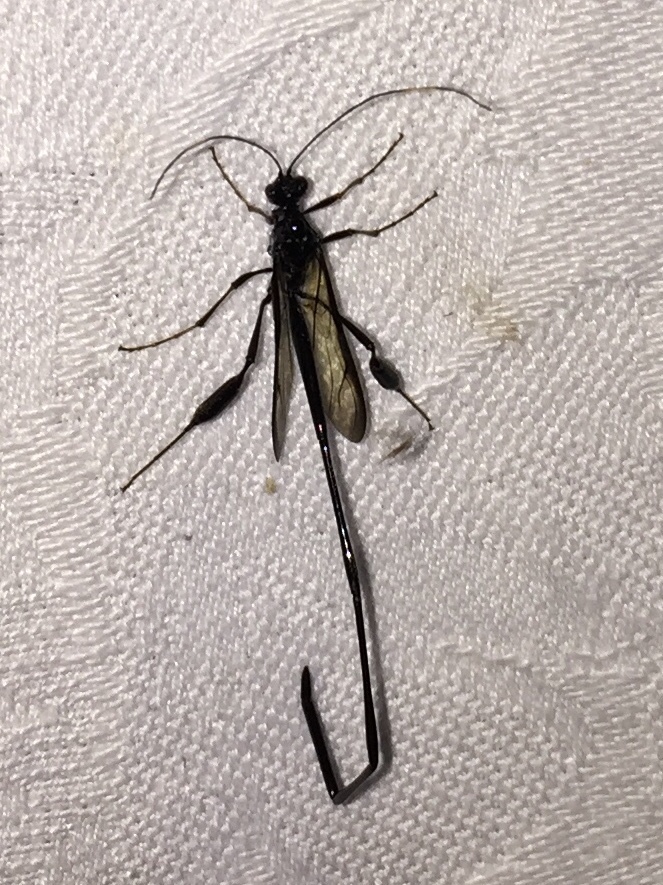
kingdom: Animalia
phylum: Arthropoda
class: Insecta
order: Hymenoptera
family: Pelecinidae
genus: Pelecinus
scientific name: Pelecinus polyturator
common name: American pelecinid wasp
